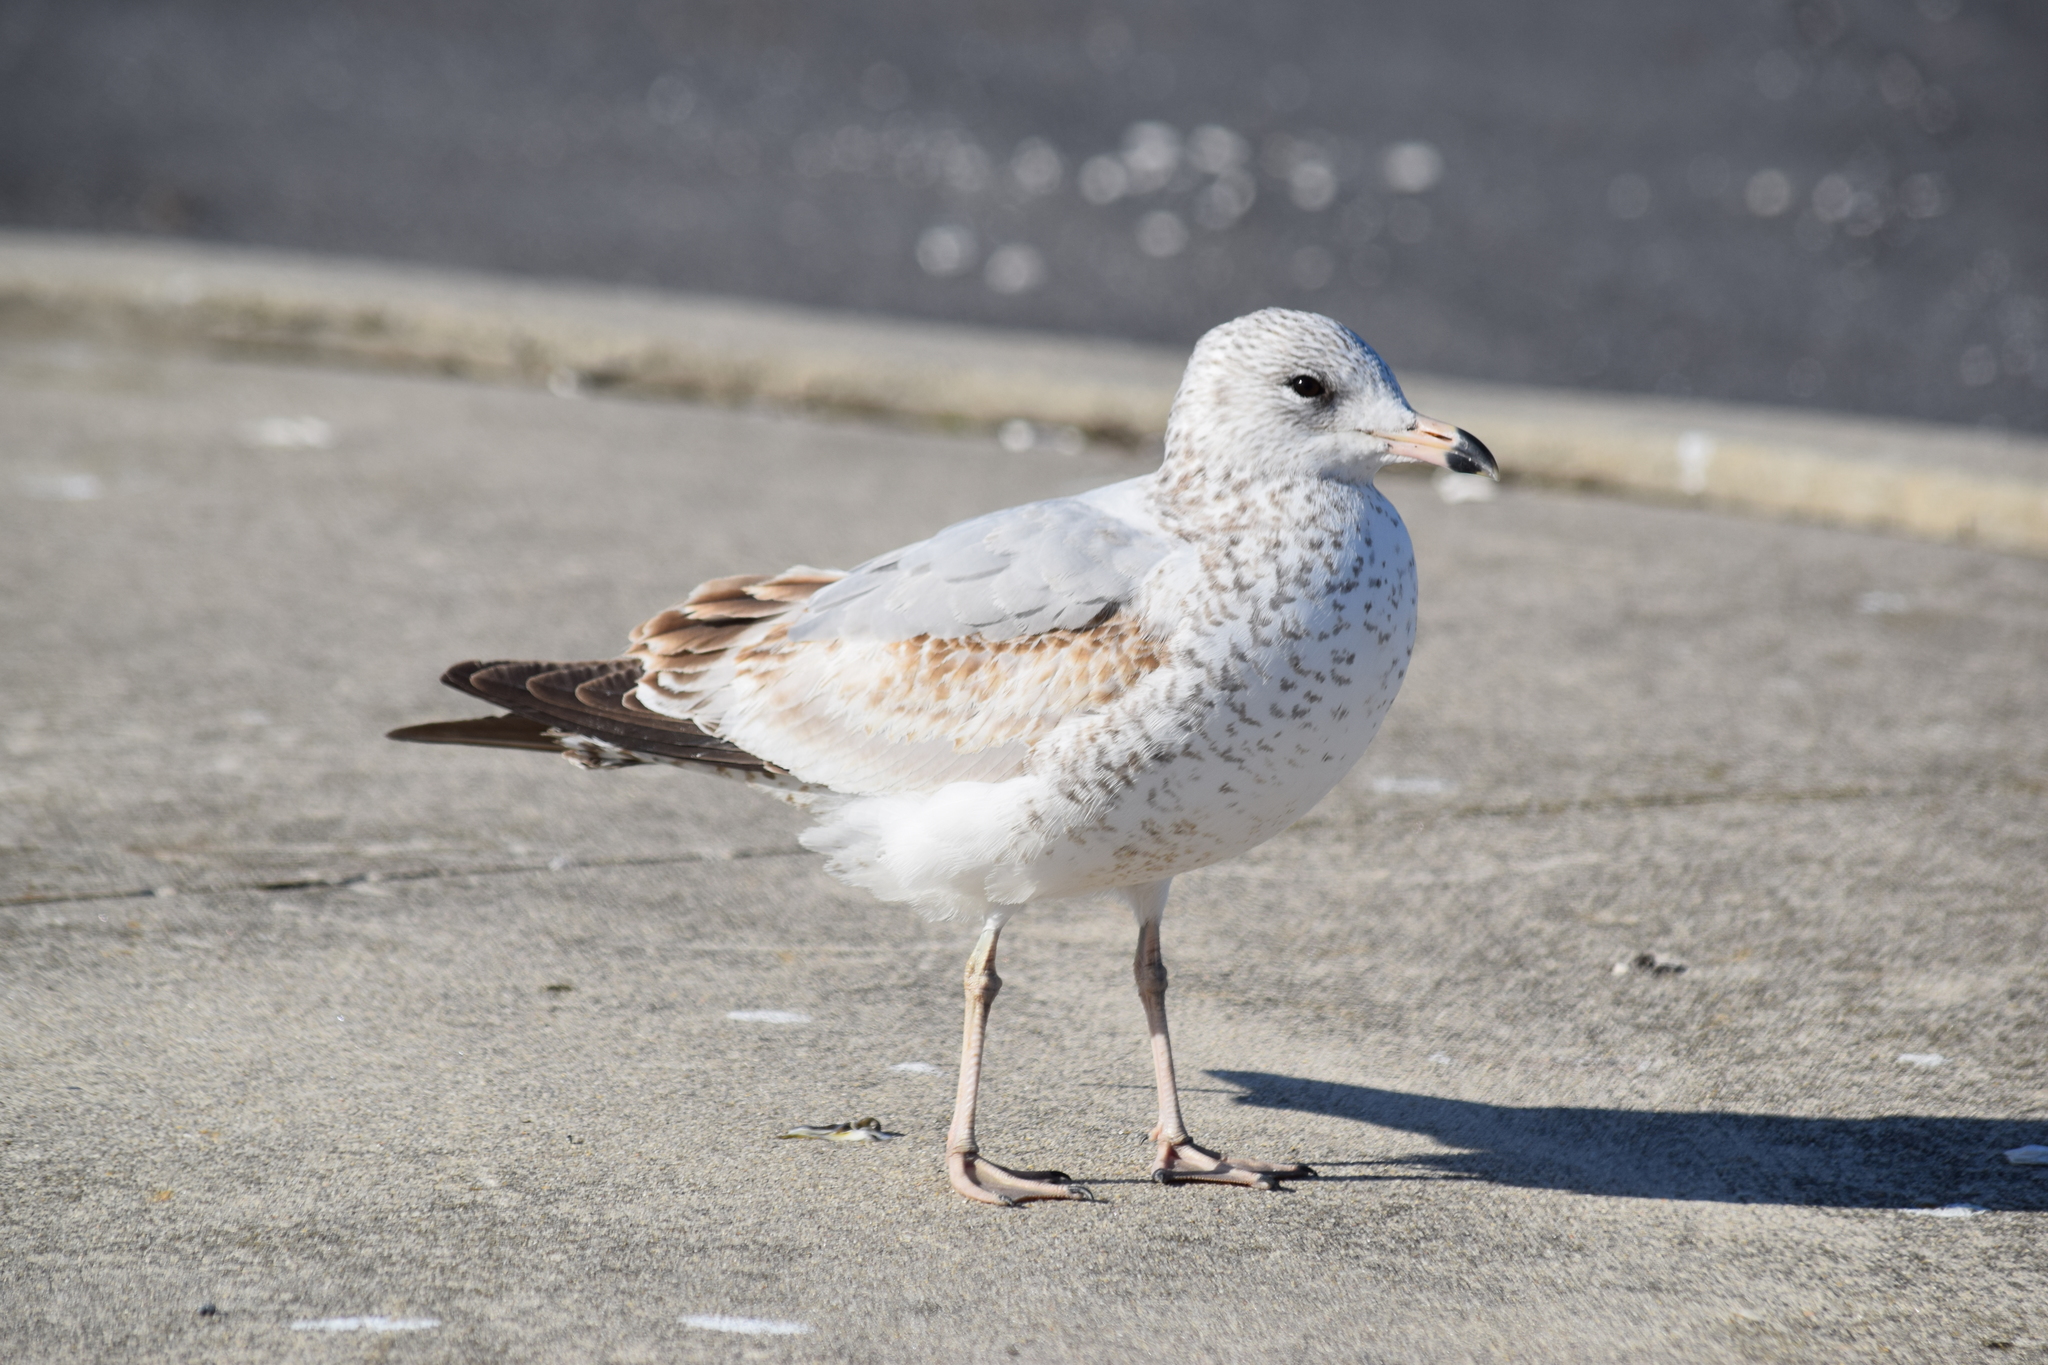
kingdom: Animalia
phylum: Chordata
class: Aves
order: Charadriiformes
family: Laridae
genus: Larus
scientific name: Larus delawarensis
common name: Ring-billed gull
